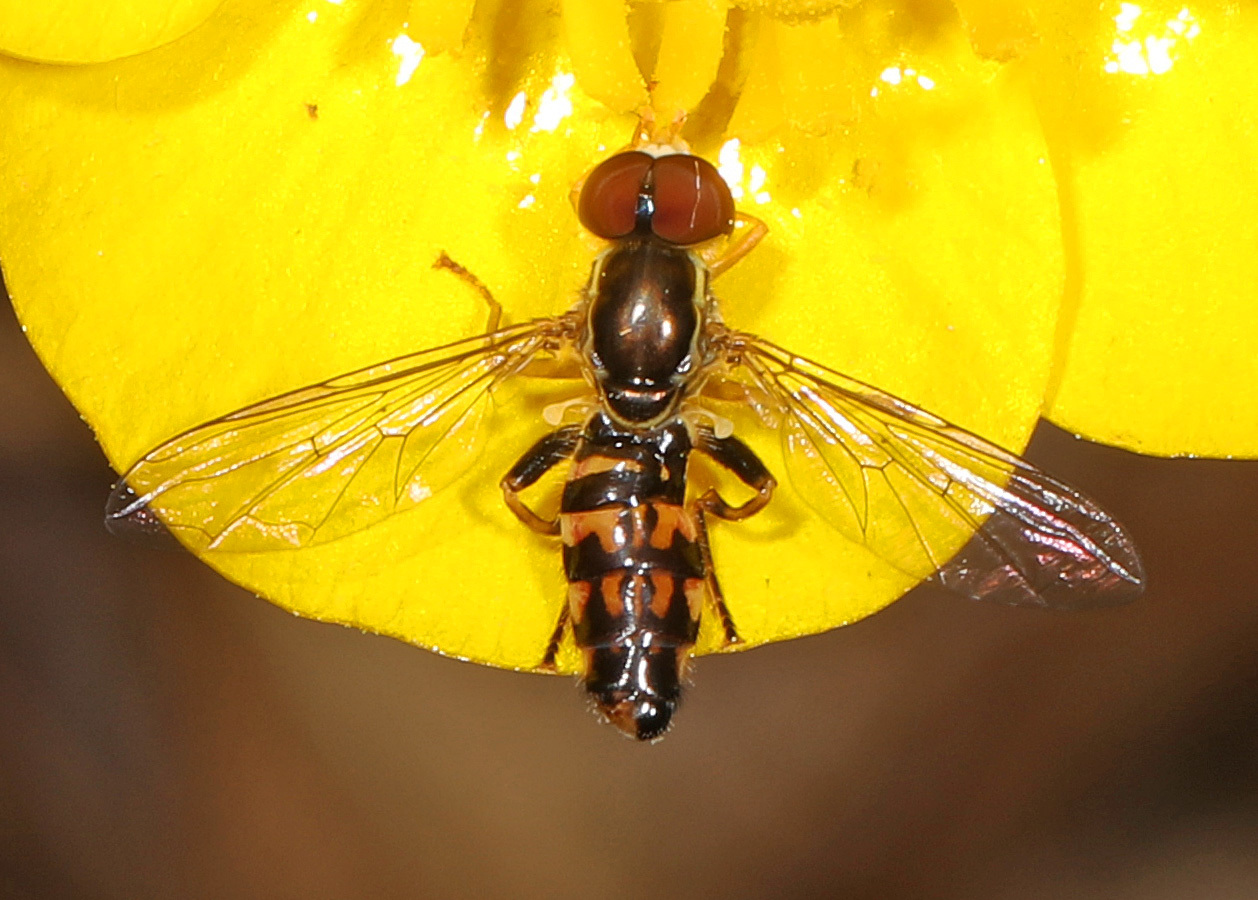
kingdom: Animalia
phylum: Arthropoda
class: Insecta
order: Diptera
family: Syrphidae
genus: Toxomerus
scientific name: Toxomerus geminatus
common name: Eastern calligrapher
